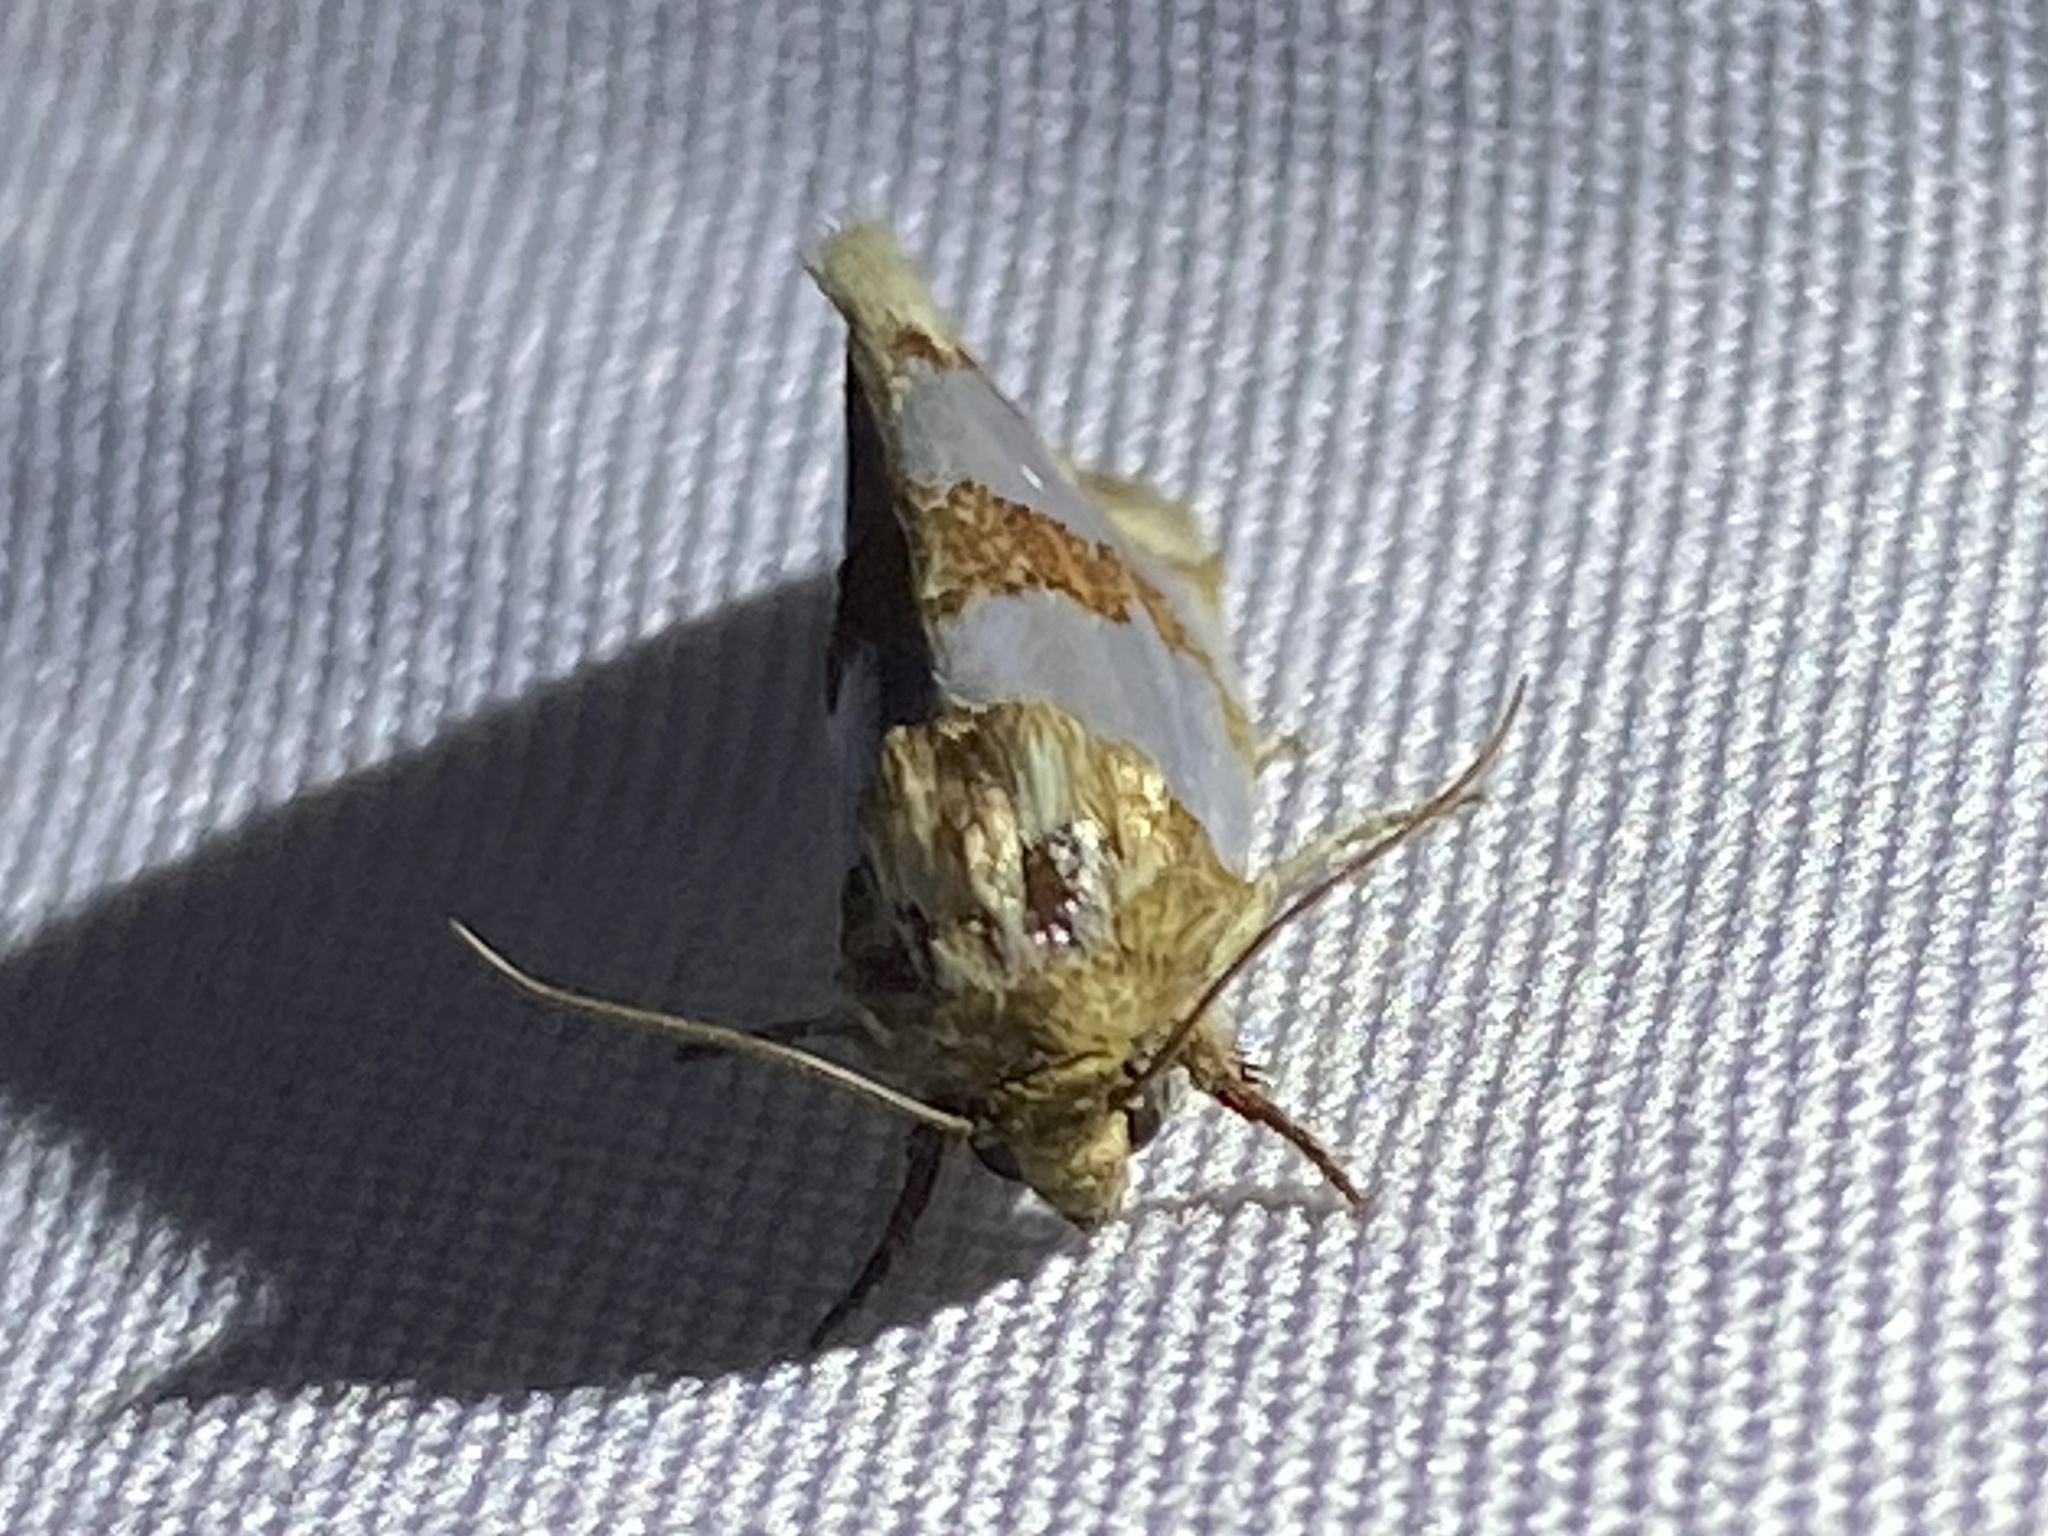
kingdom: Animalia
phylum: Arthropoda
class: Insecta
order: Lepidoptera
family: Noctuidae
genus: Schinia
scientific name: Schinia chrysellus
